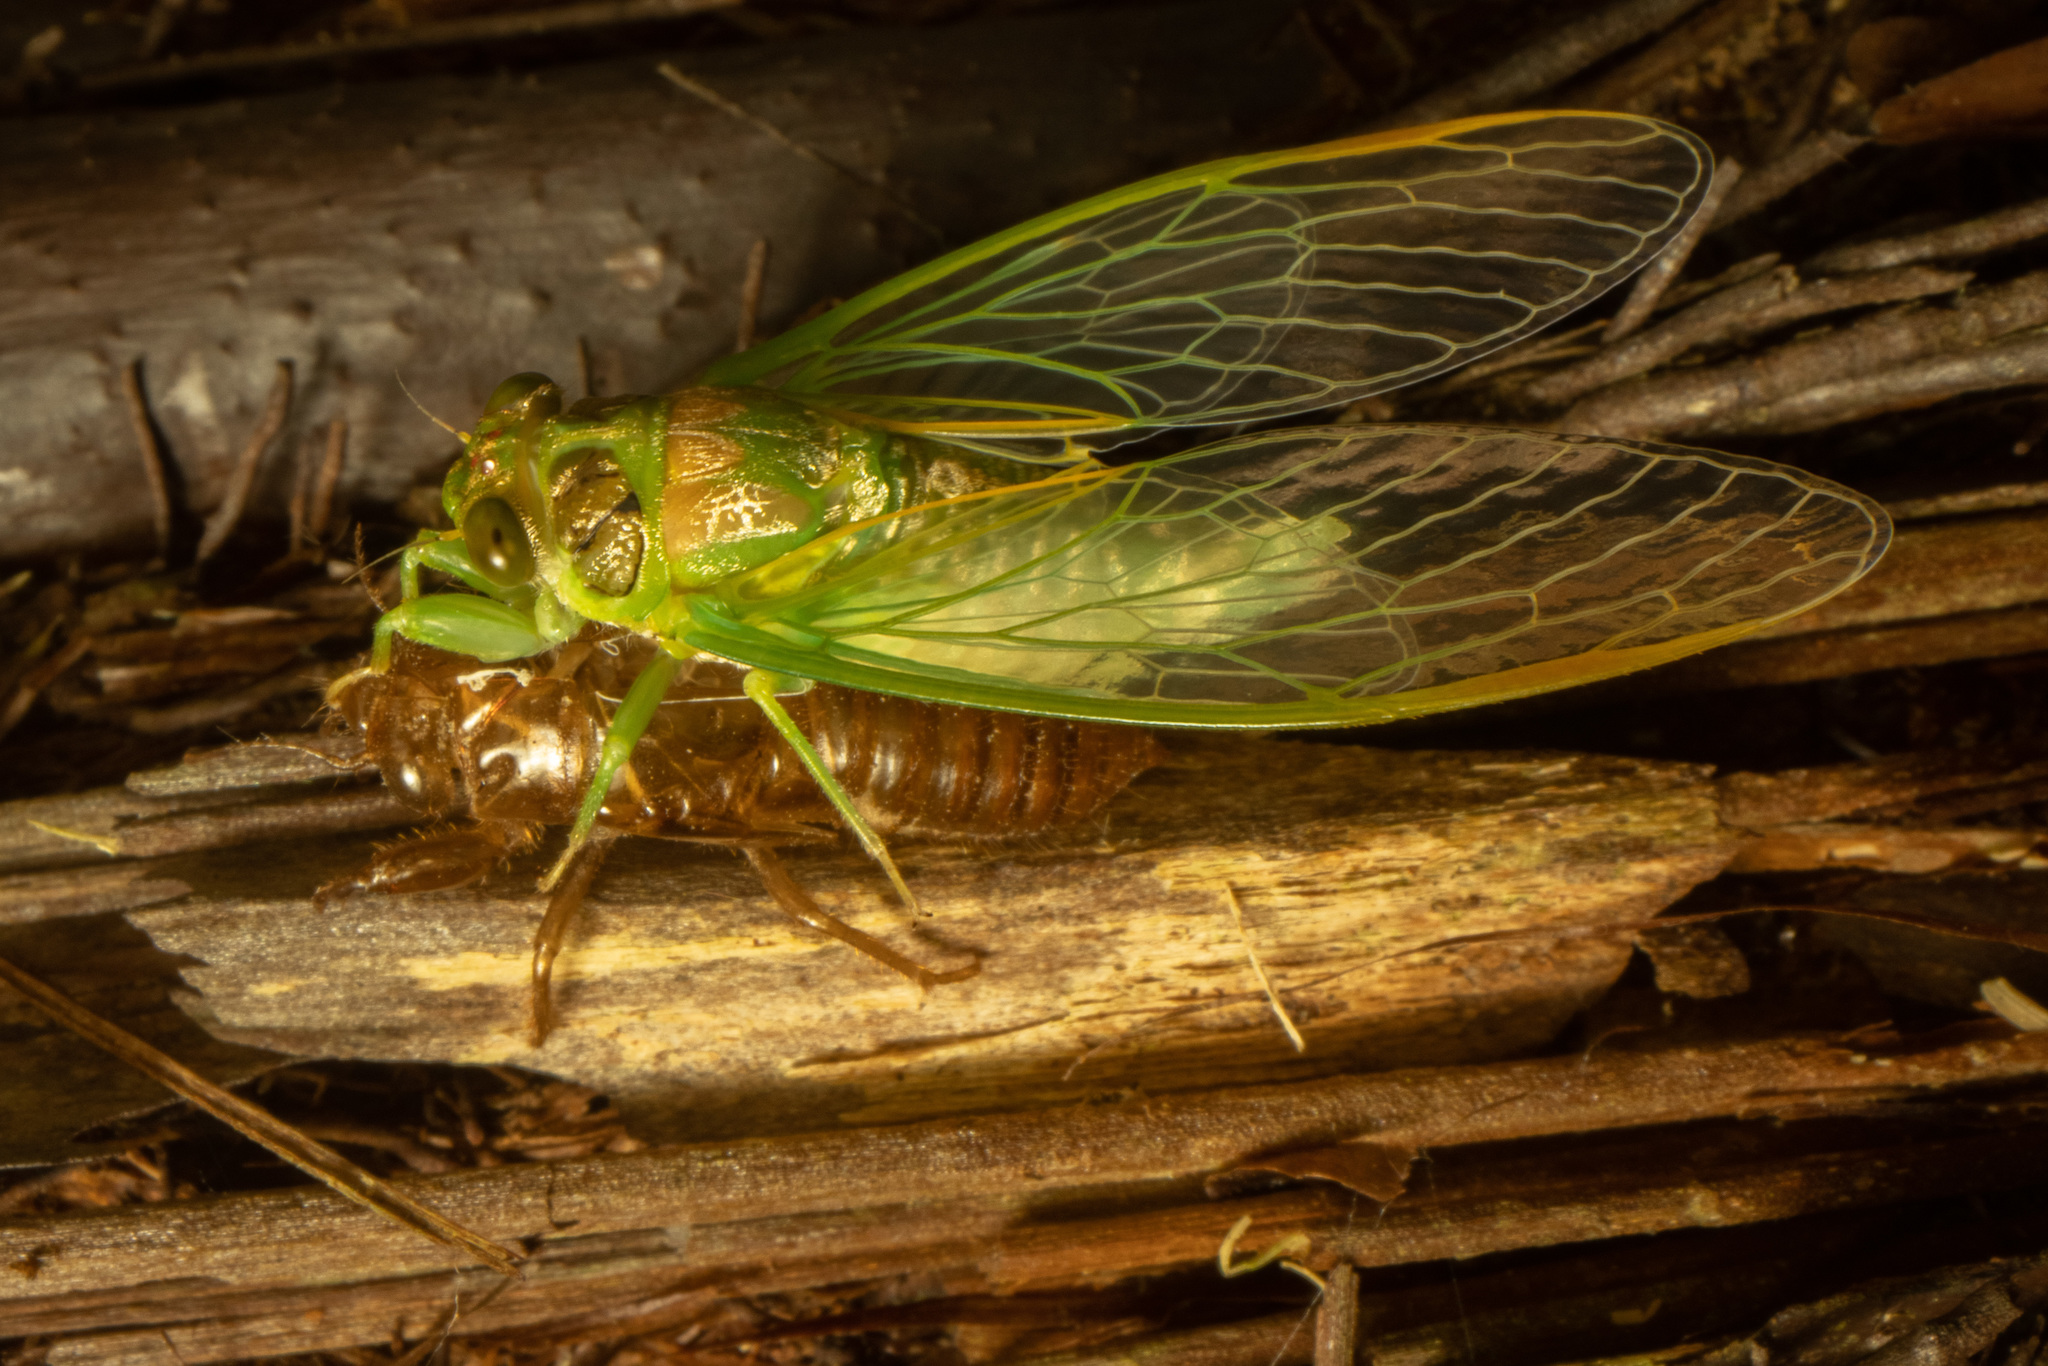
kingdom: Animalia
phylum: Arthropoda
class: Insecta
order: Hemiptera
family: Cicadidae
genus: Kikihia
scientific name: Kikihia scutellaris
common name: Lesser bronze cicada
